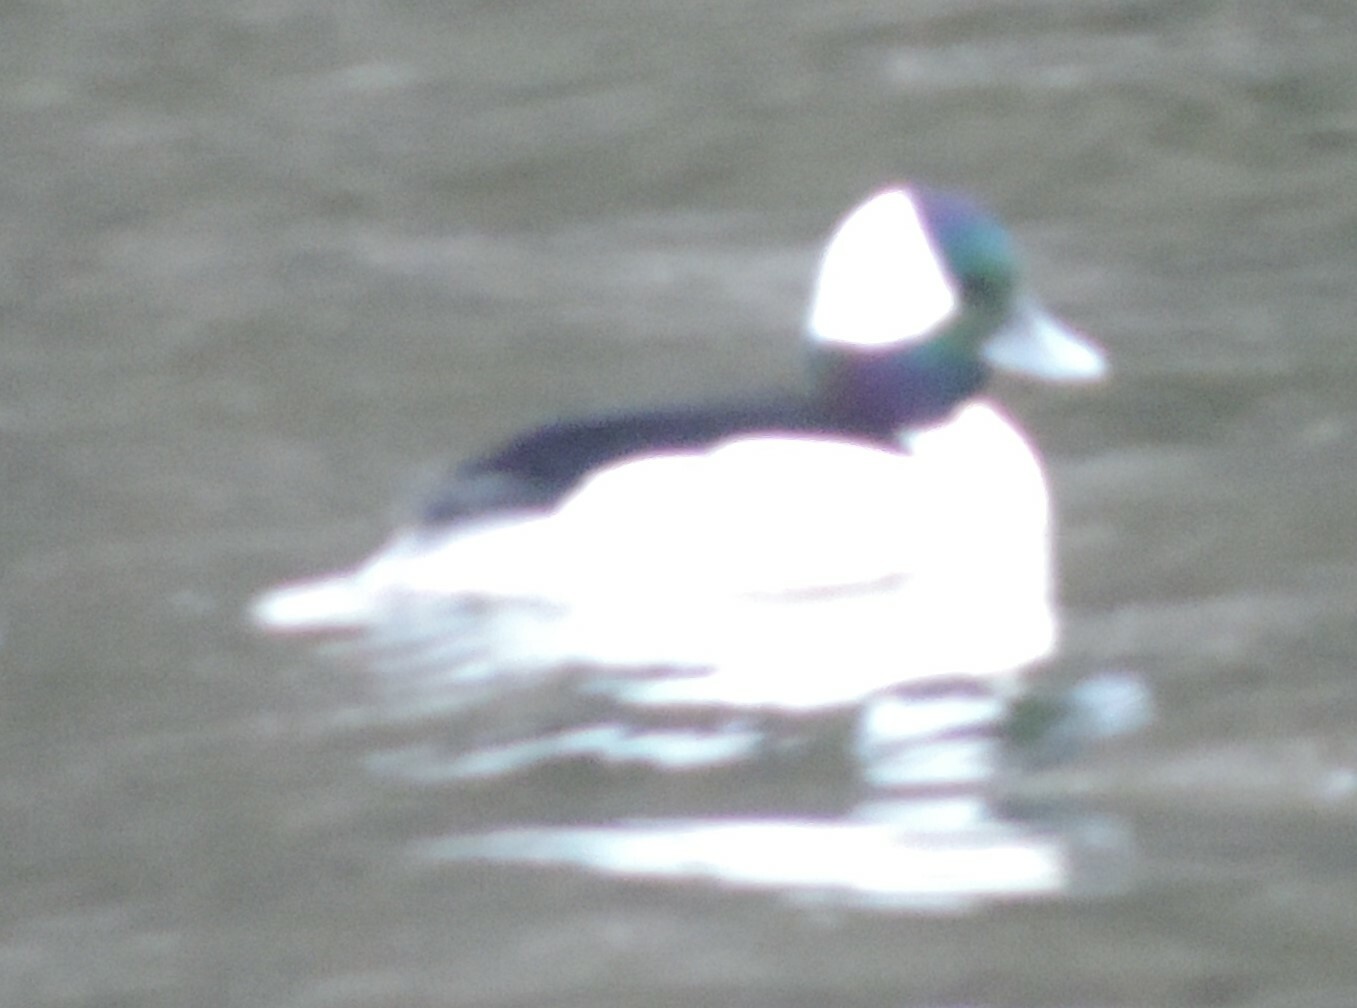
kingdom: Animalia
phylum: Chordata
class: Aves
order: Anseriformes
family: Anatidae
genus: Bucephala
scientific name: Bucephala albeola
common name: Bufflehead
